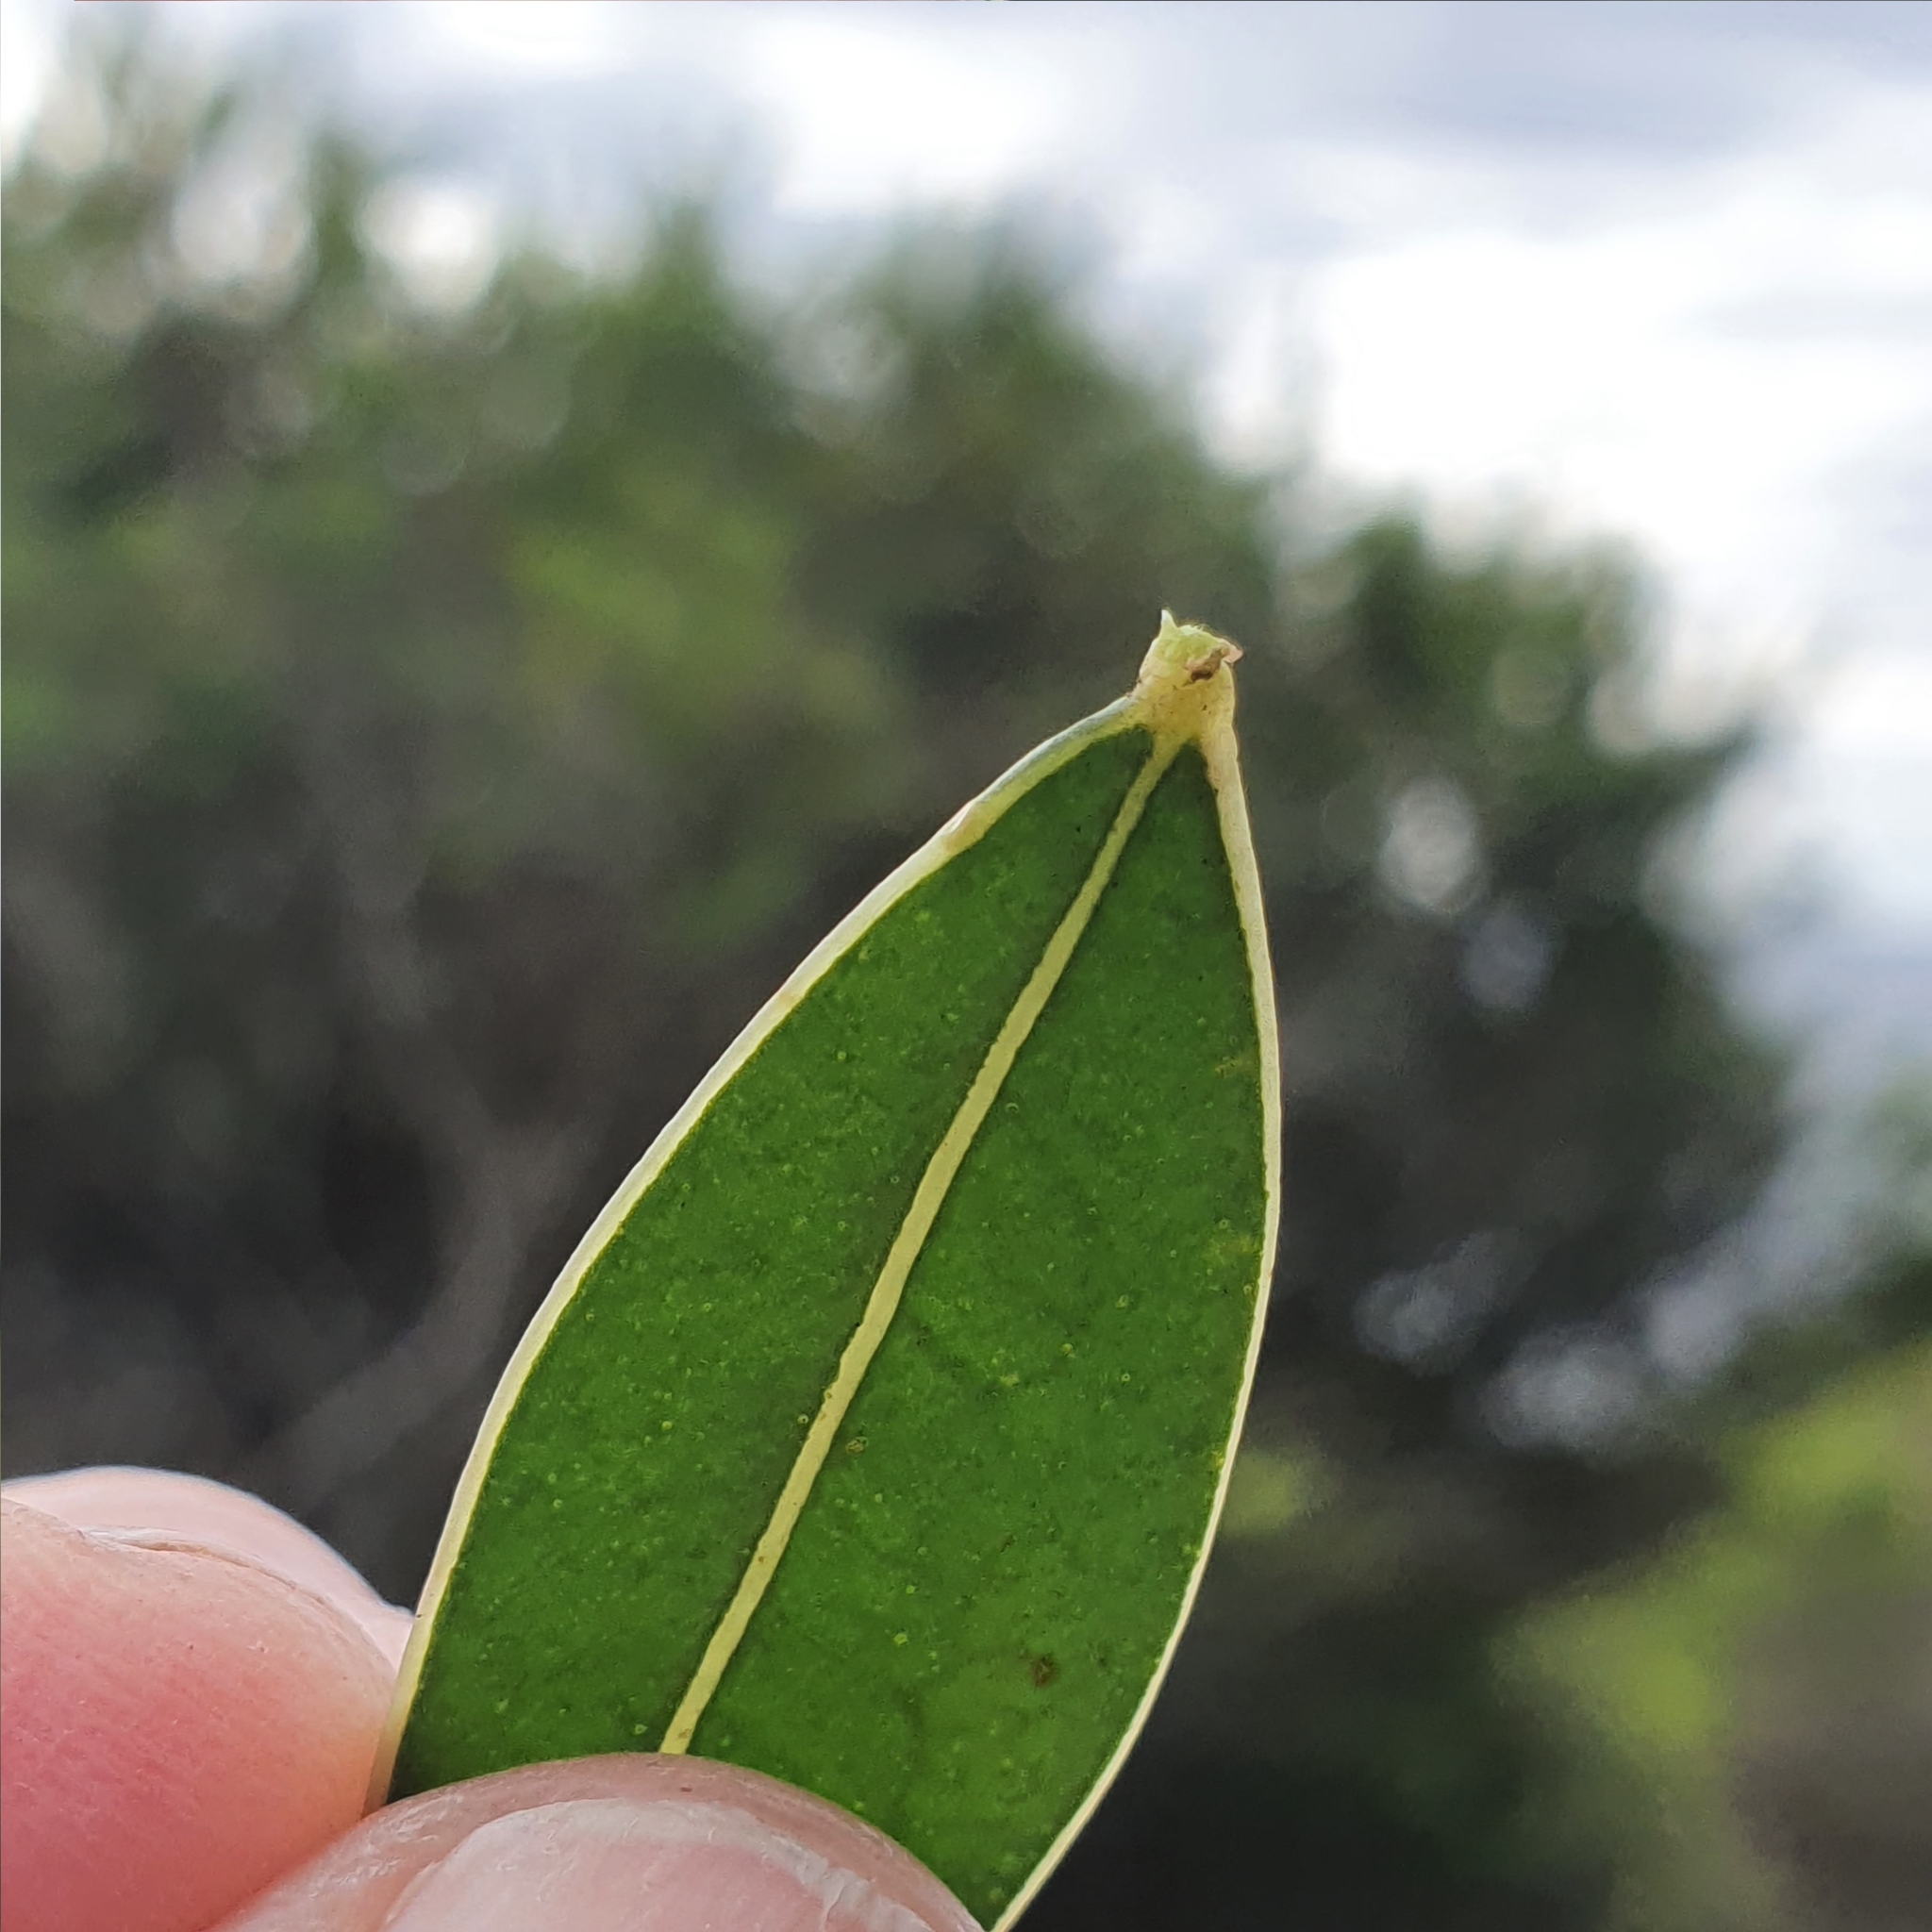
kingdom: Plantae
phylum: Tracheophyta
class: Magnoliopsida
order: Fabales
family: Fabaceae
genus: Acacia
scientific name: Acacia myrtifolia
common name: Myrtle wattle
